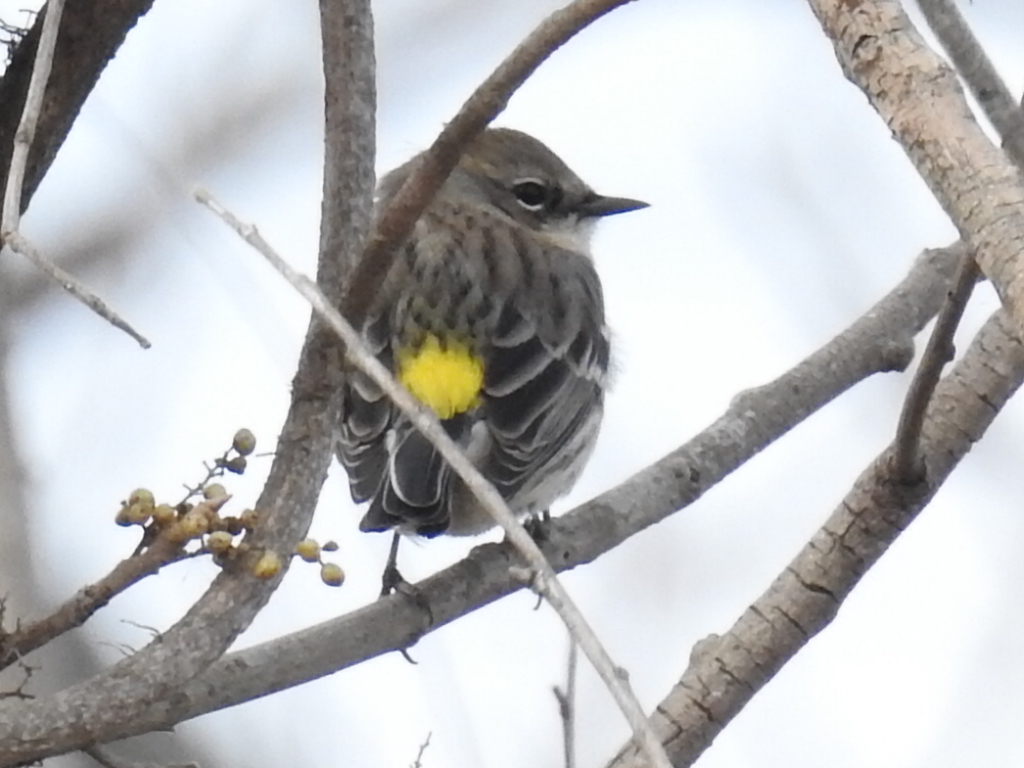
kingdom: Animalia
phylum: Chordata
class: Aves
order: Passeriformes
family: Parulidae
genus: Setophaga
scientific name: Setophaga coronata
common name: Myrtle warbler
